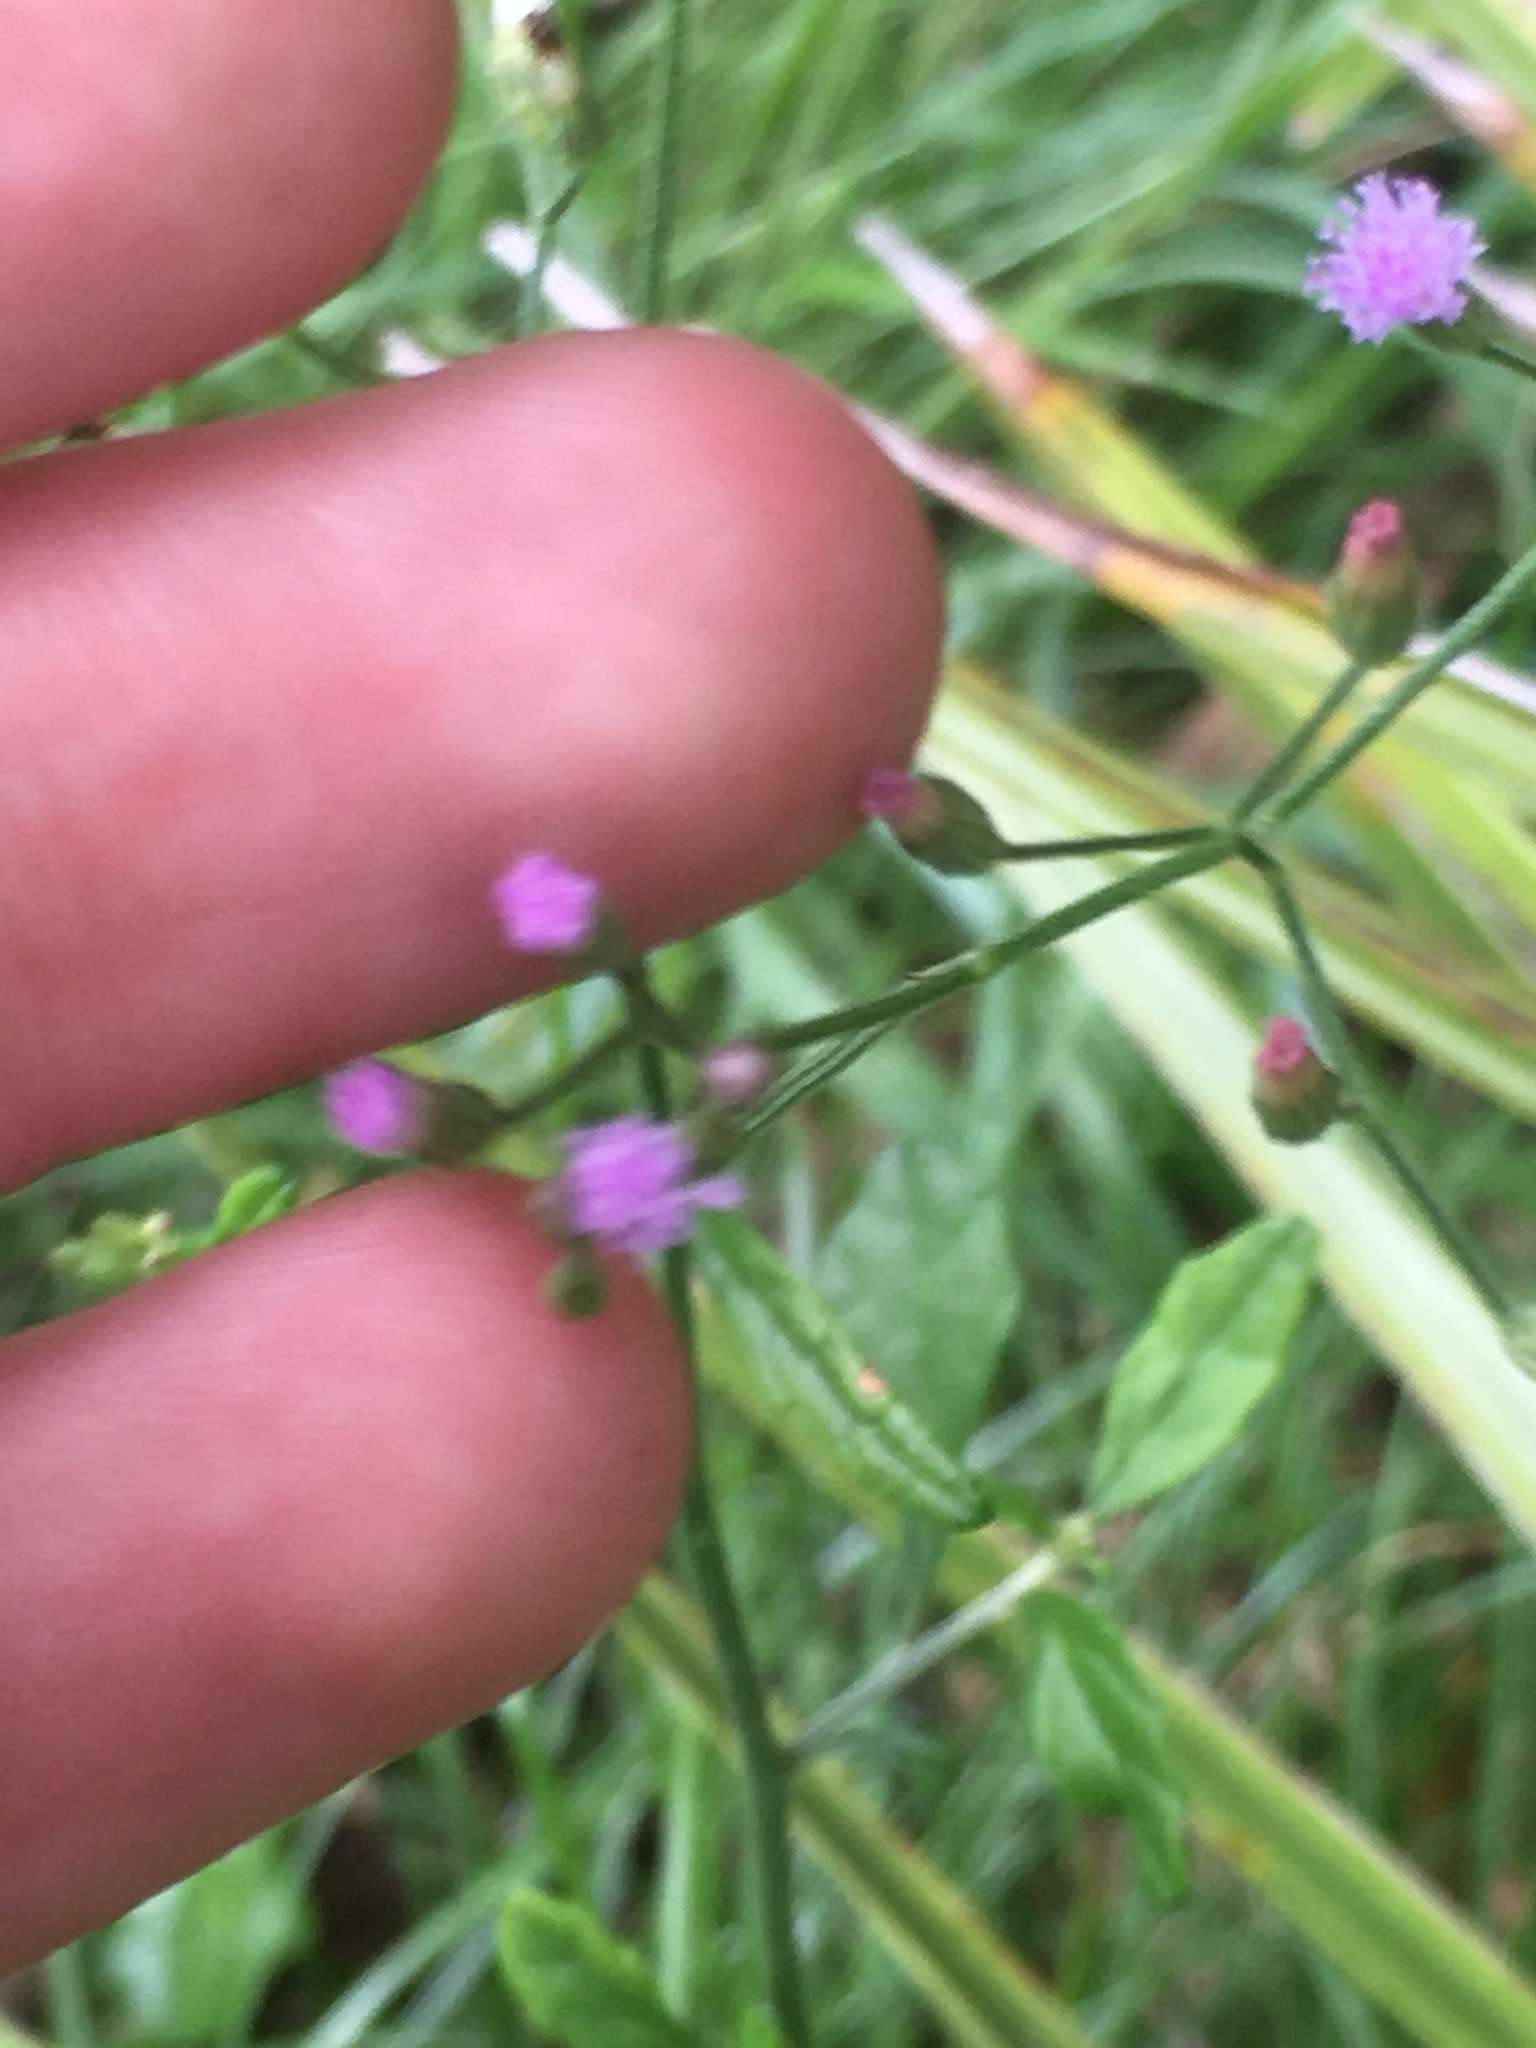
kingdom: Plantae
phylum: Tracheophyta
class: Magnoliopsida
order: Asterales
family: Asteraceae
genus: Emilia
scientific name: Emilia sonchifolia
